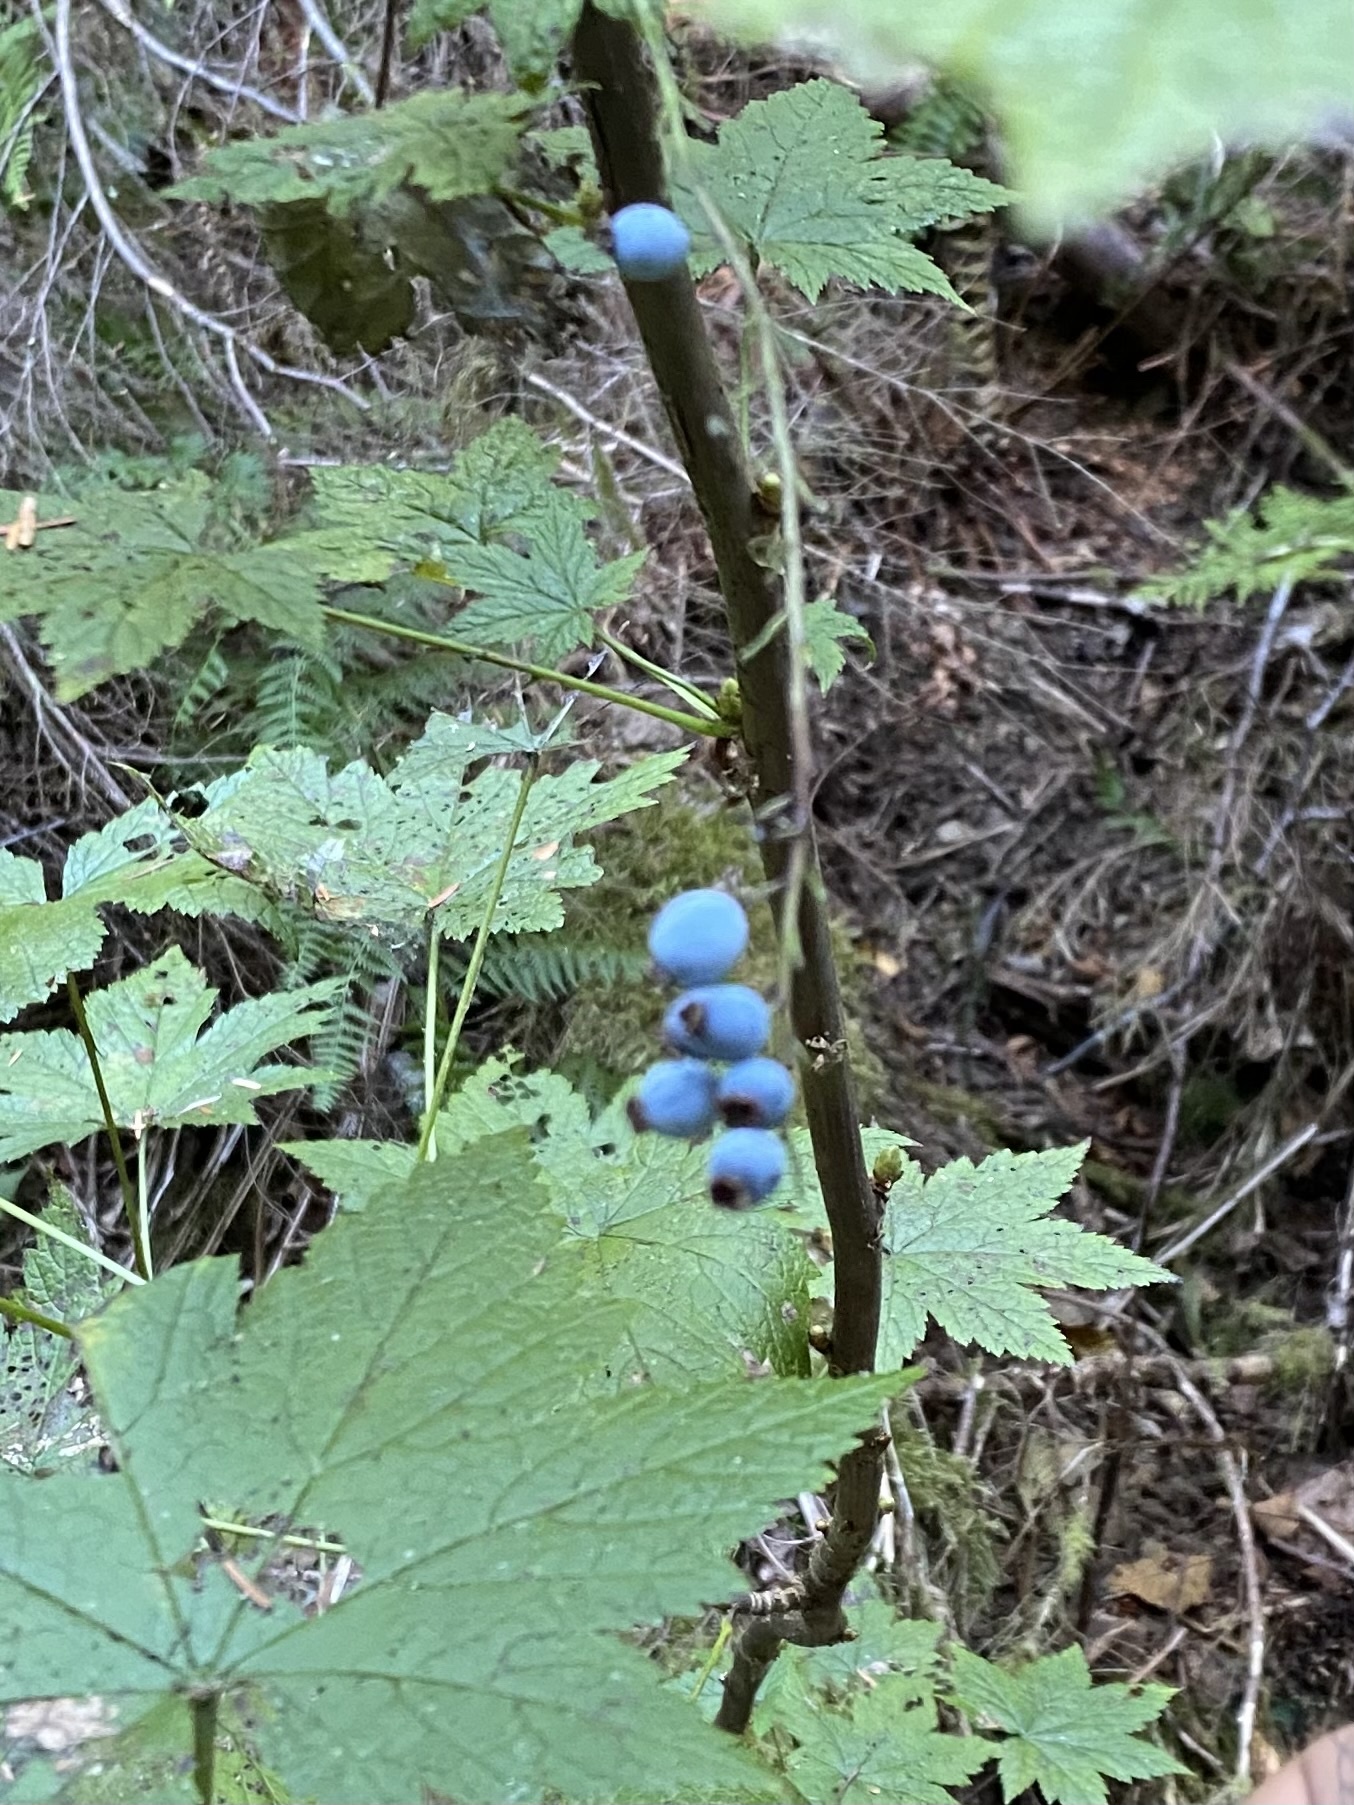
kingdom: Plantae
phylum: Tracheophyta
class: Magnoliopsida
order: Saxifragales
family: Grossulariaceae
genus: Ribes
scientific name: Ribes bracteosum
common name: California black currant
